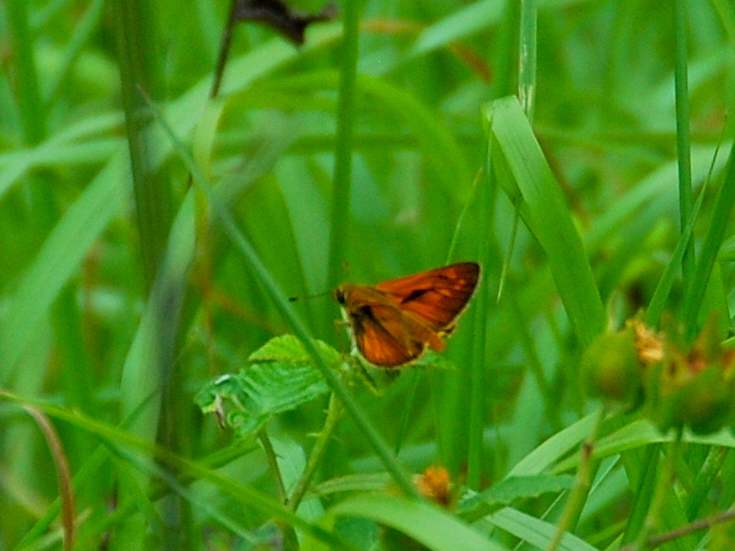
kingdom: Animalia
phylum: Arthropoda
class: Insecta
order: Lepidoptera
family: Hesperiidae
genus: Ochlodes
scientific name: Ochlodes venata
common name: Large skipper
